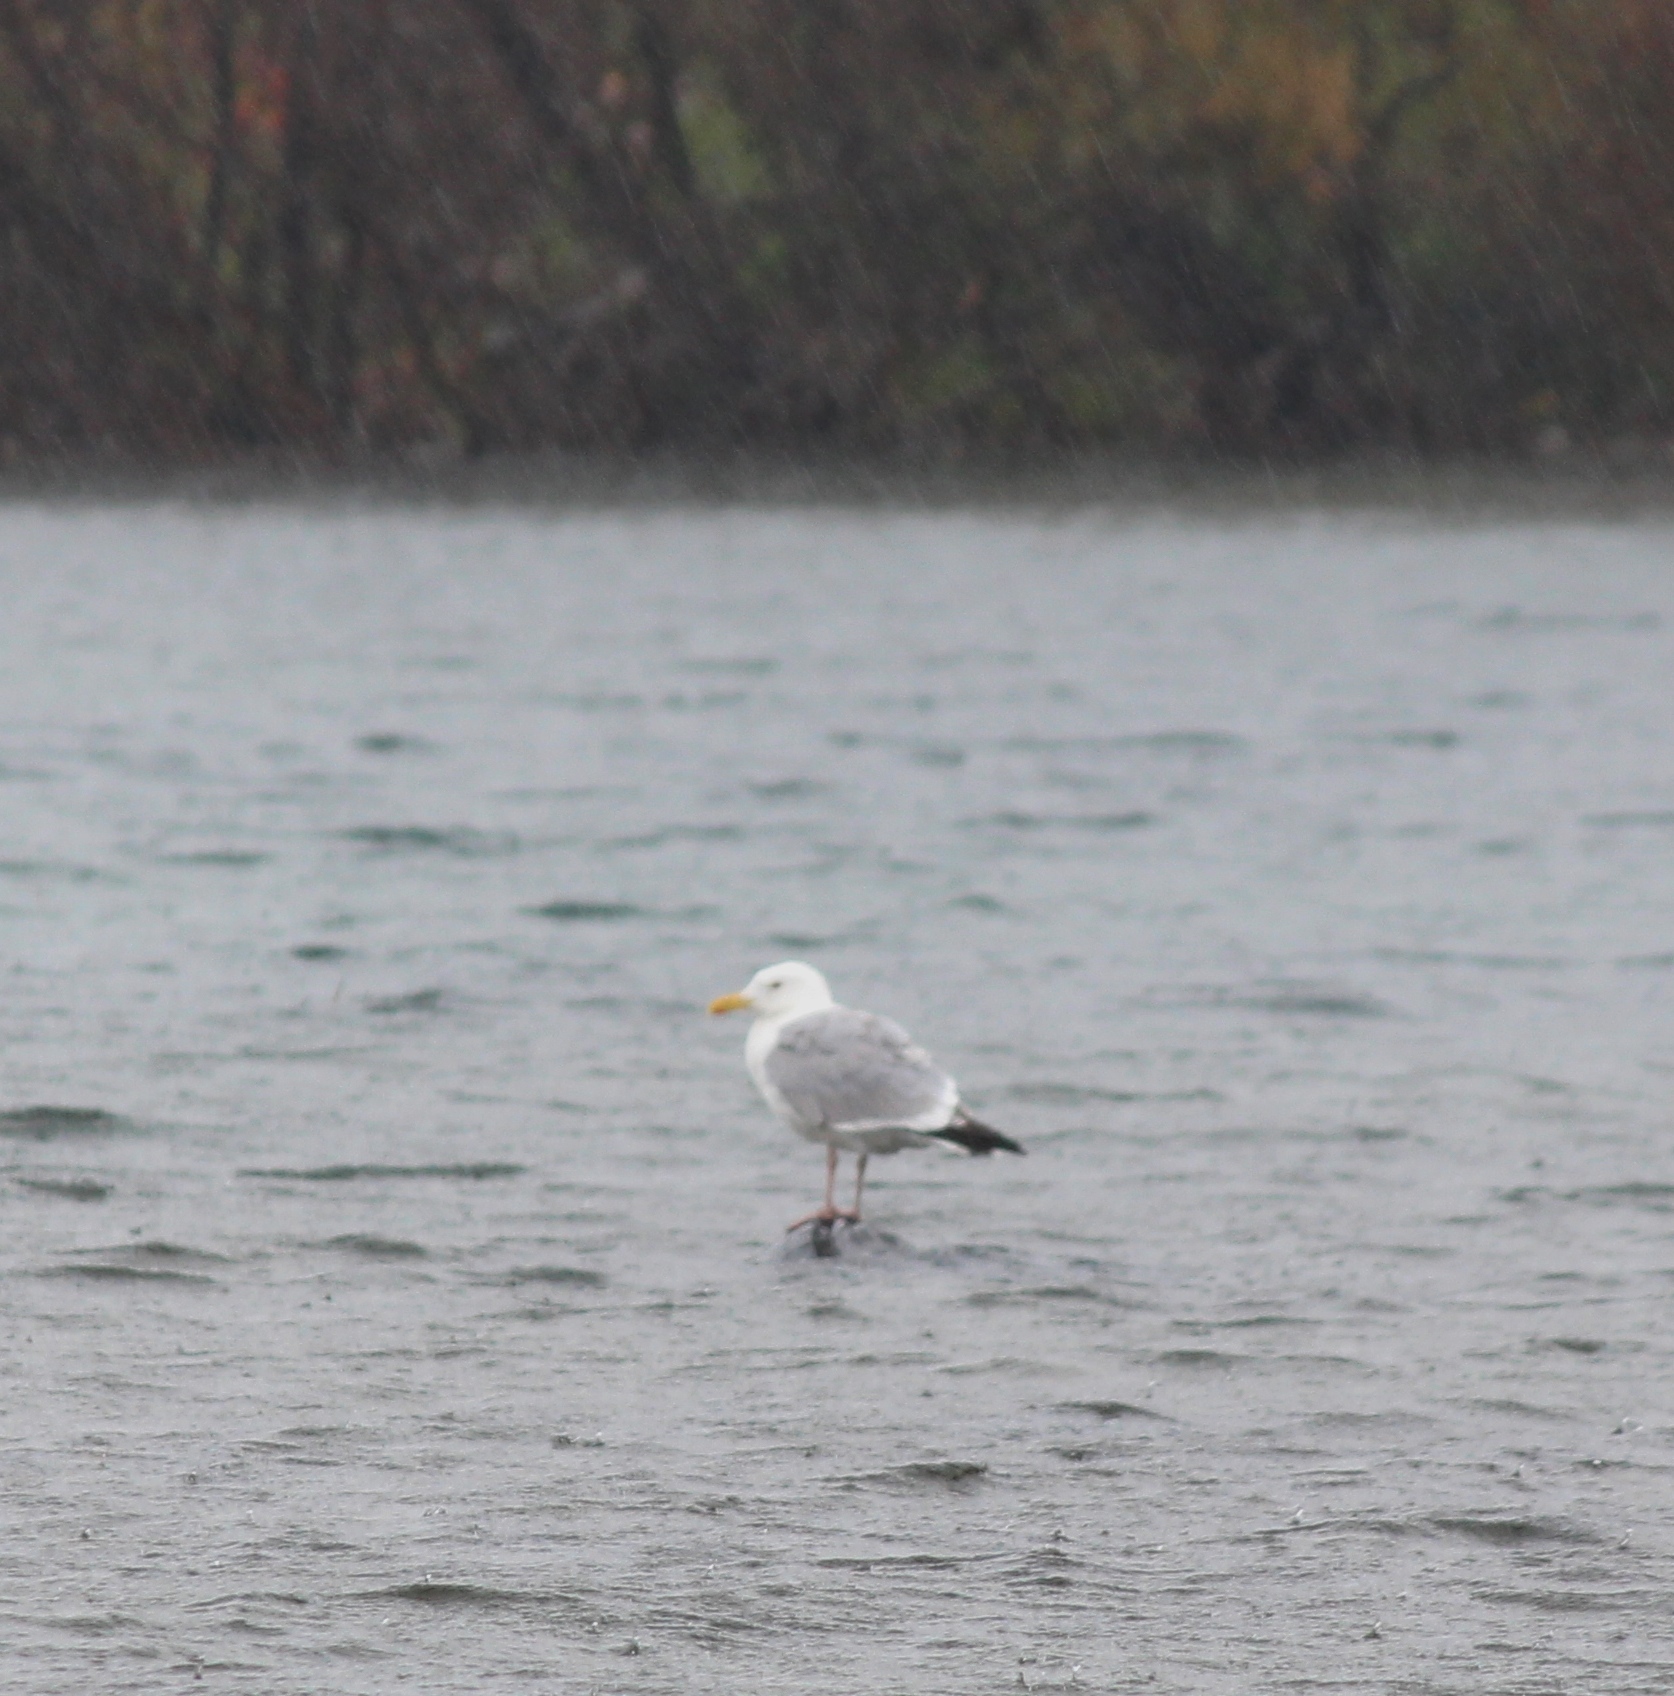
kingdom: Animalia
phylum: Chordata
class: Aves
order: Charadriiformes
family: Laridae
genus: Larus
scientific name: Larus vegae
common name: Vega gull
